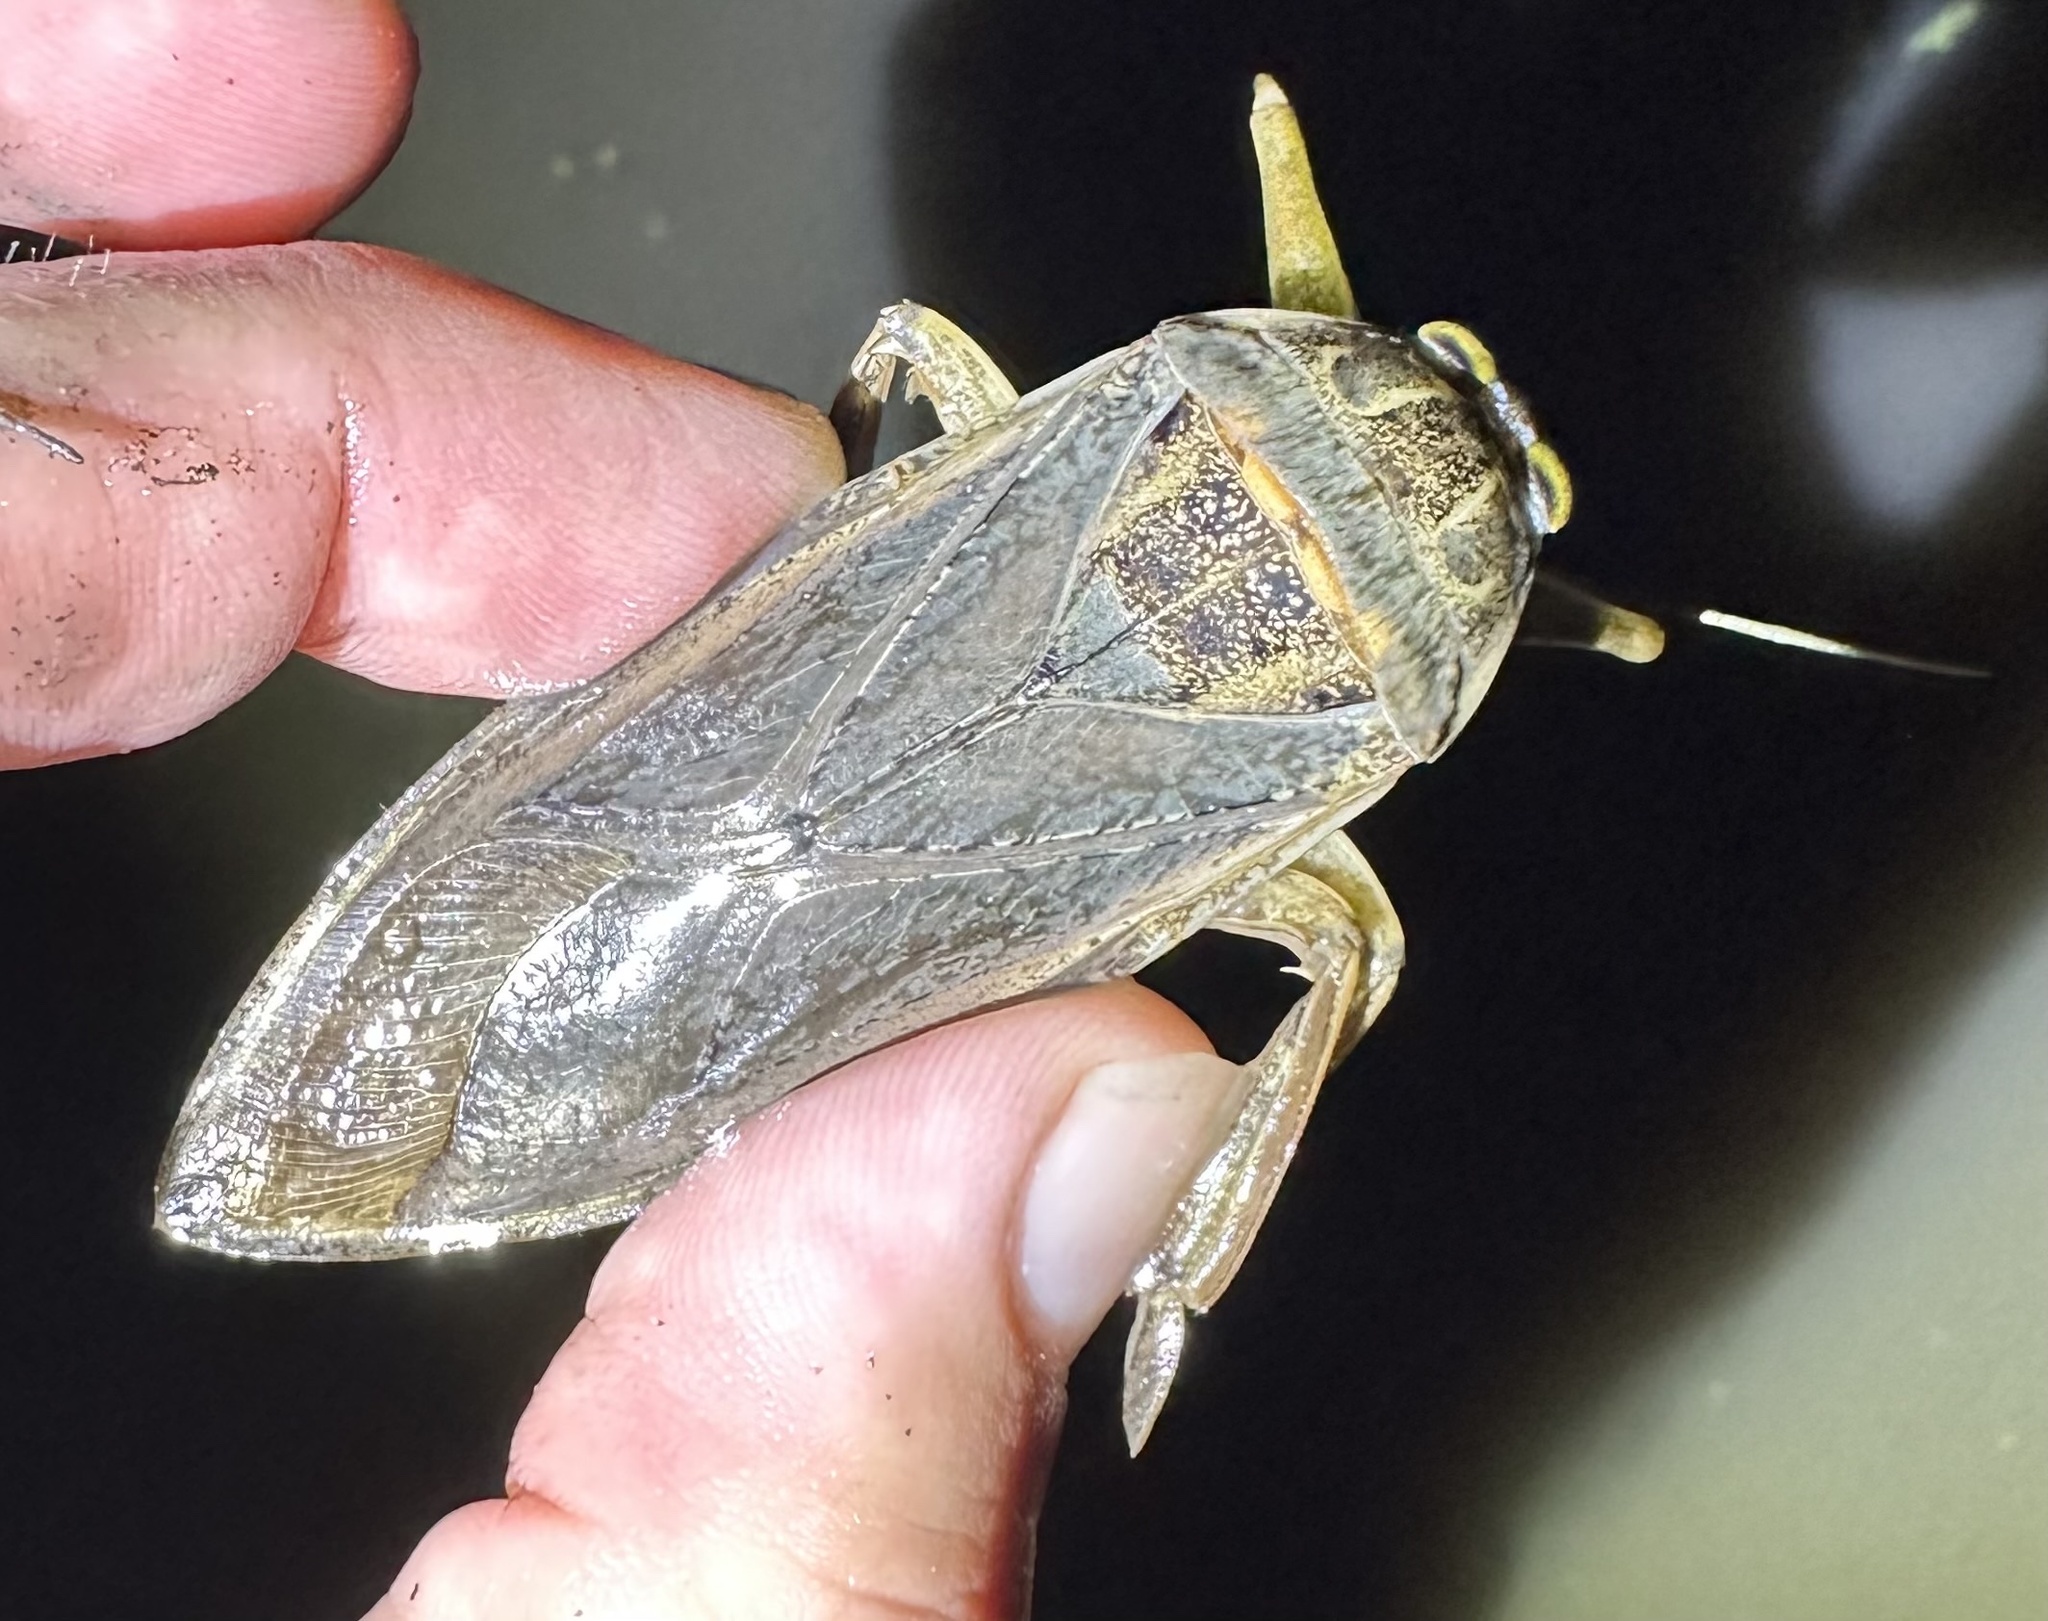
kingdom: Animalia
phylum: Arthropoda
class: Insecta
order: Hemiptera
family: Belostomatidae
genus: Lethocerus
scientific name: Lethocerus cordofanus
